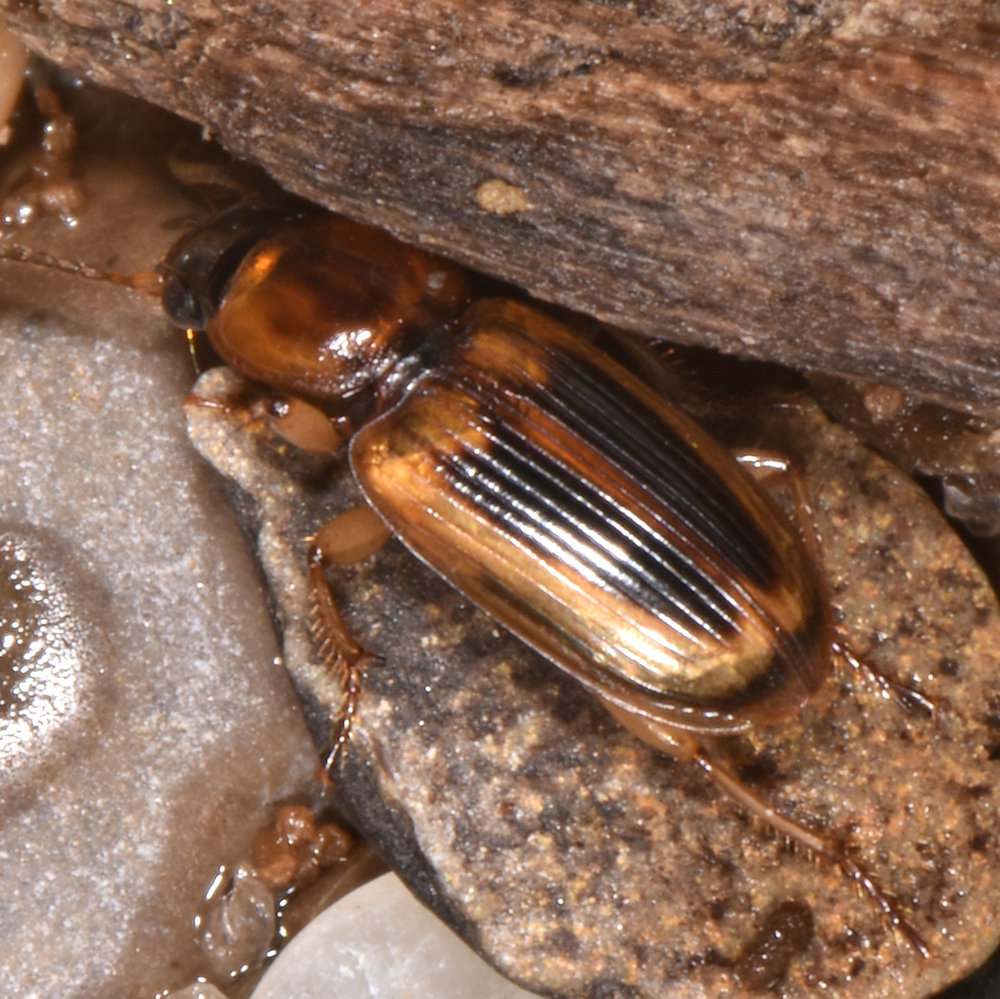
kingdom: Animalia
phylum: Arthropoda
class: Insecta
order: Coleoptera
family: Carabidae
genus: Stenolophus
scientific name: Stenolophus lecontei
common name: Leconte's seedcorn beetle
